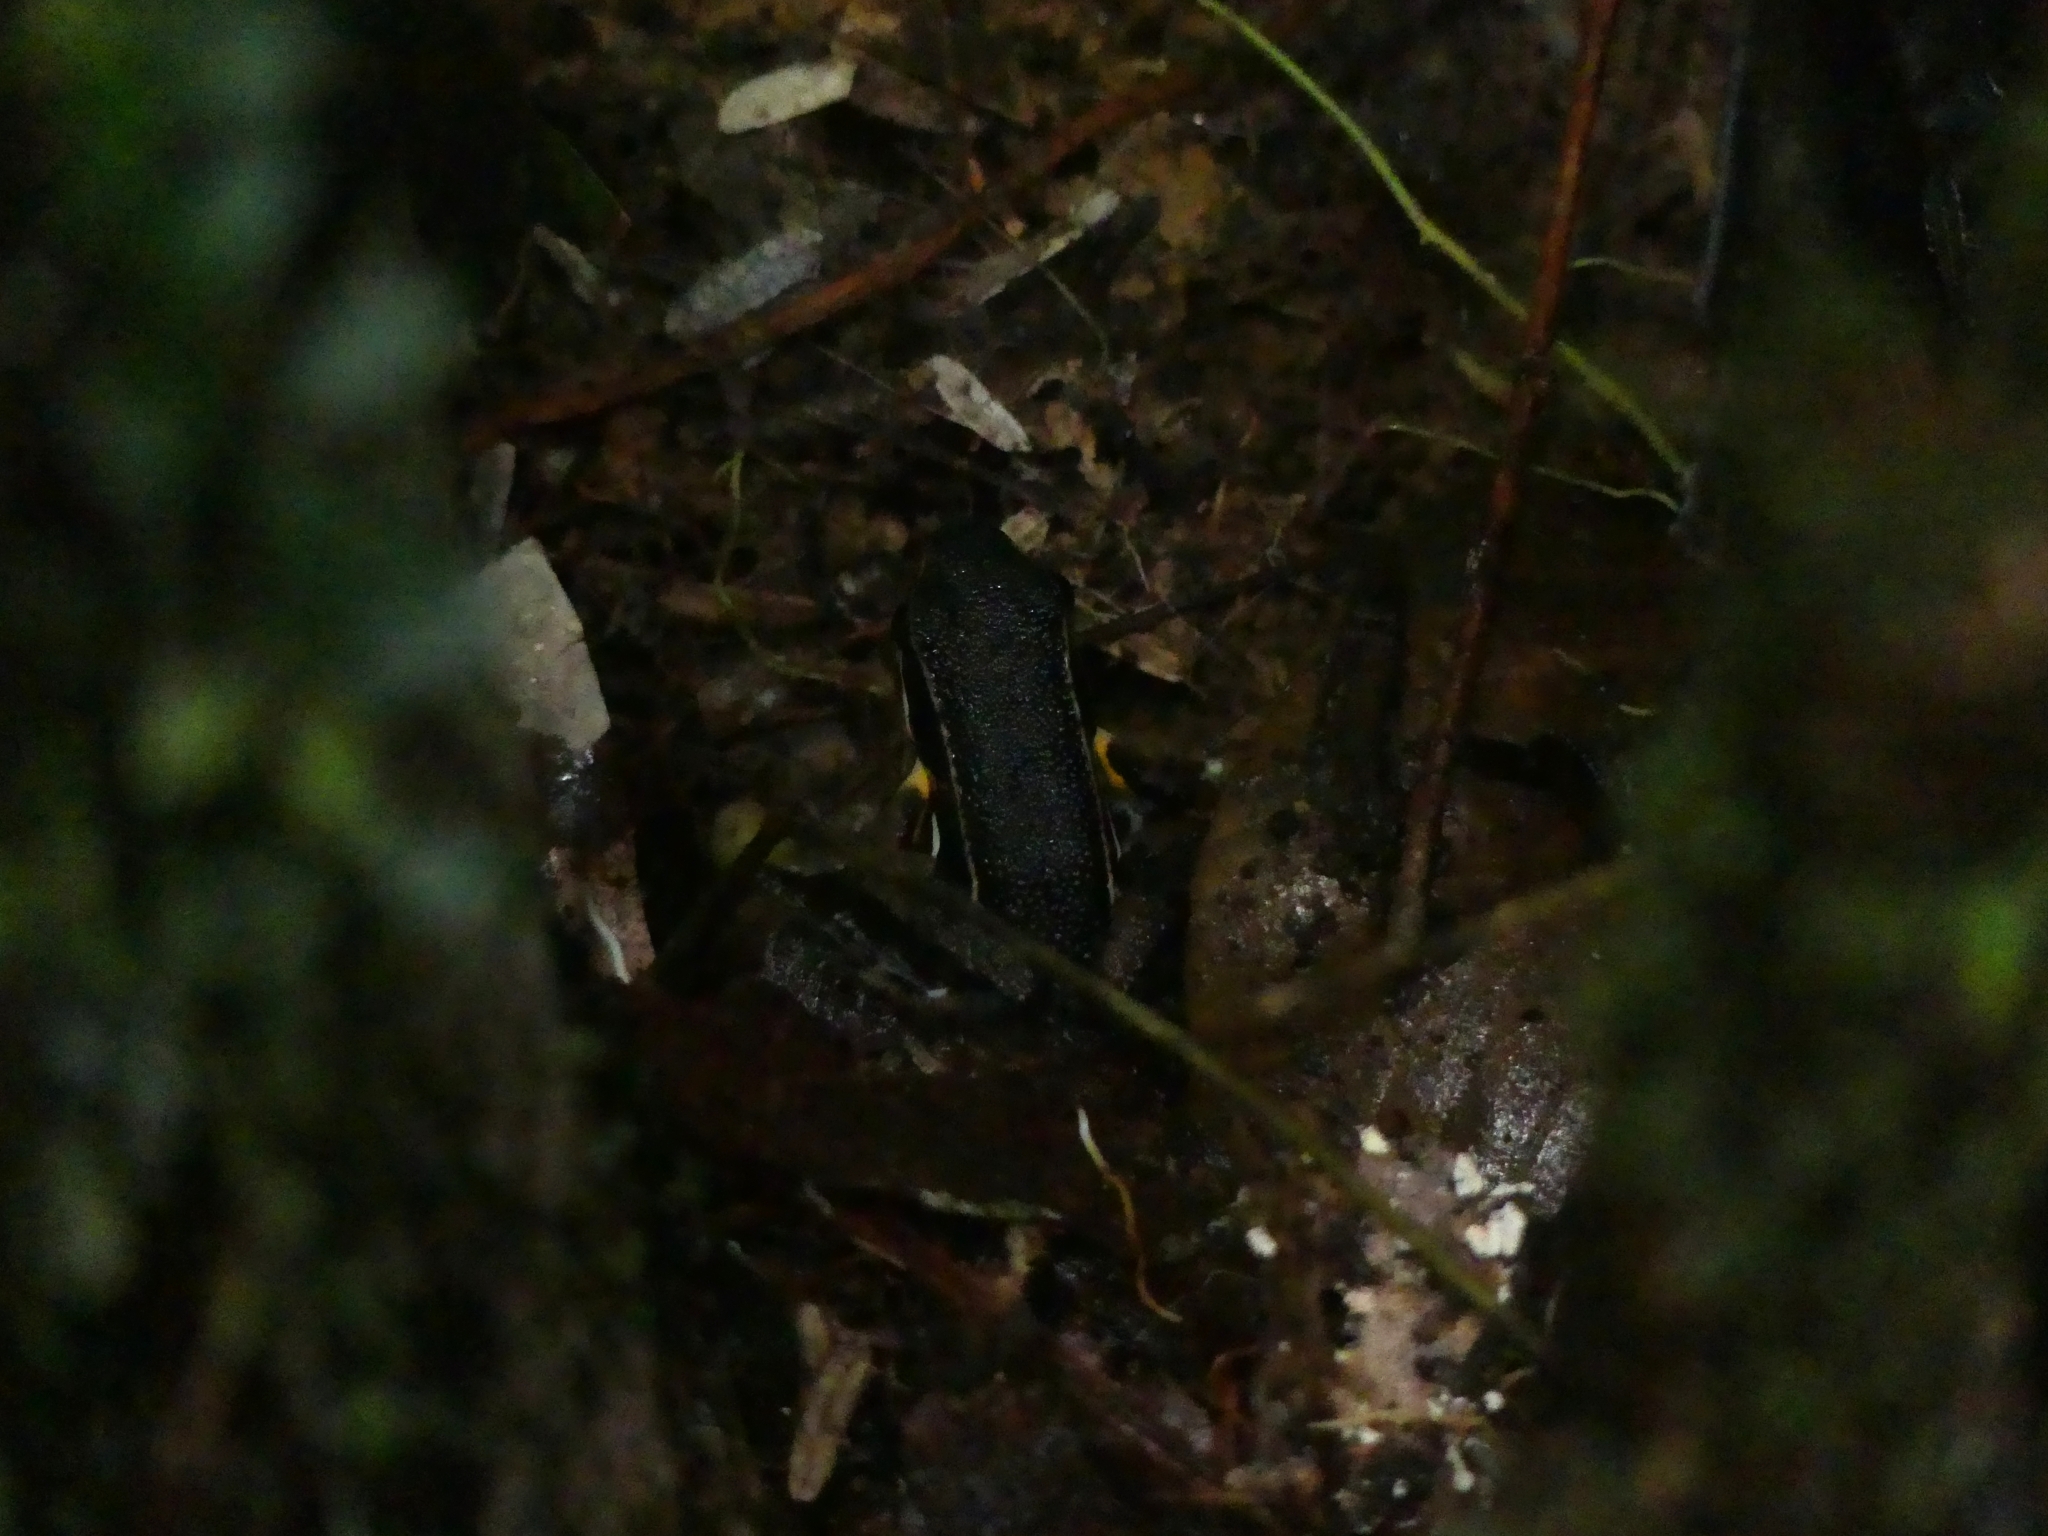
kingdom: Animalia
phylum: Chordata
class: Amphibia
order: Anura
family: Aromobatidae
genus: Allobates
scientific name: Allobates femoralis
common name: Brilliant-thighed poison frog
